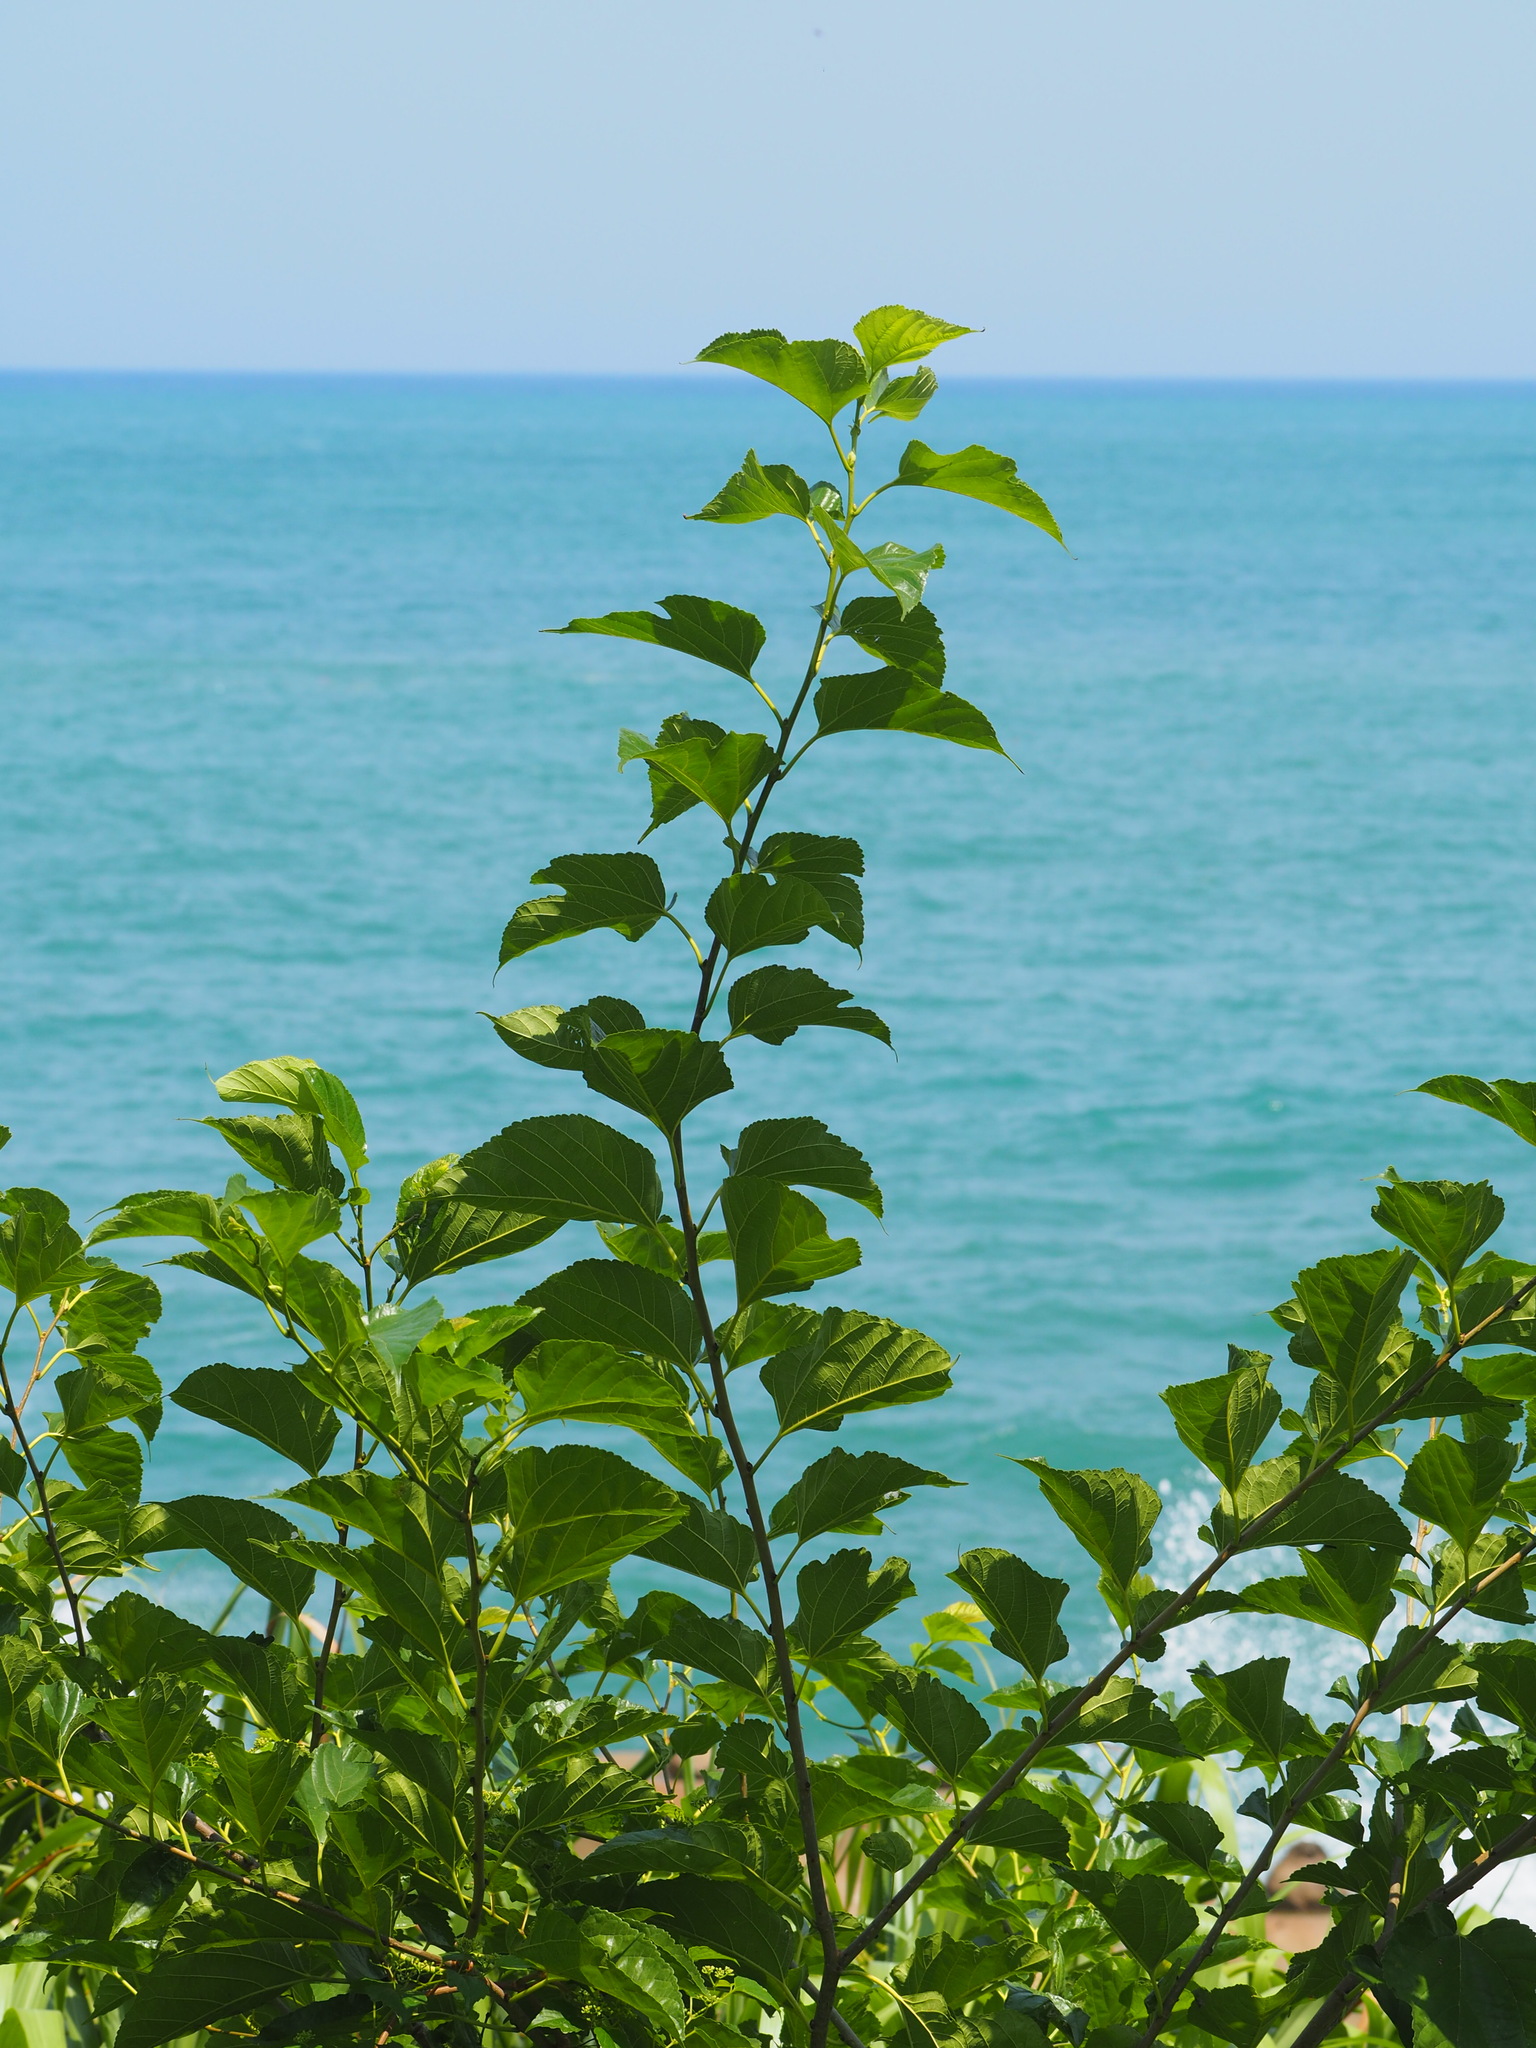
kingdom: Plantae
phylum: Tracheophyta
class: Magnoliopsida
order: Rosales
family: Moraceae
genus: Morus
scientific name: Morus indica
